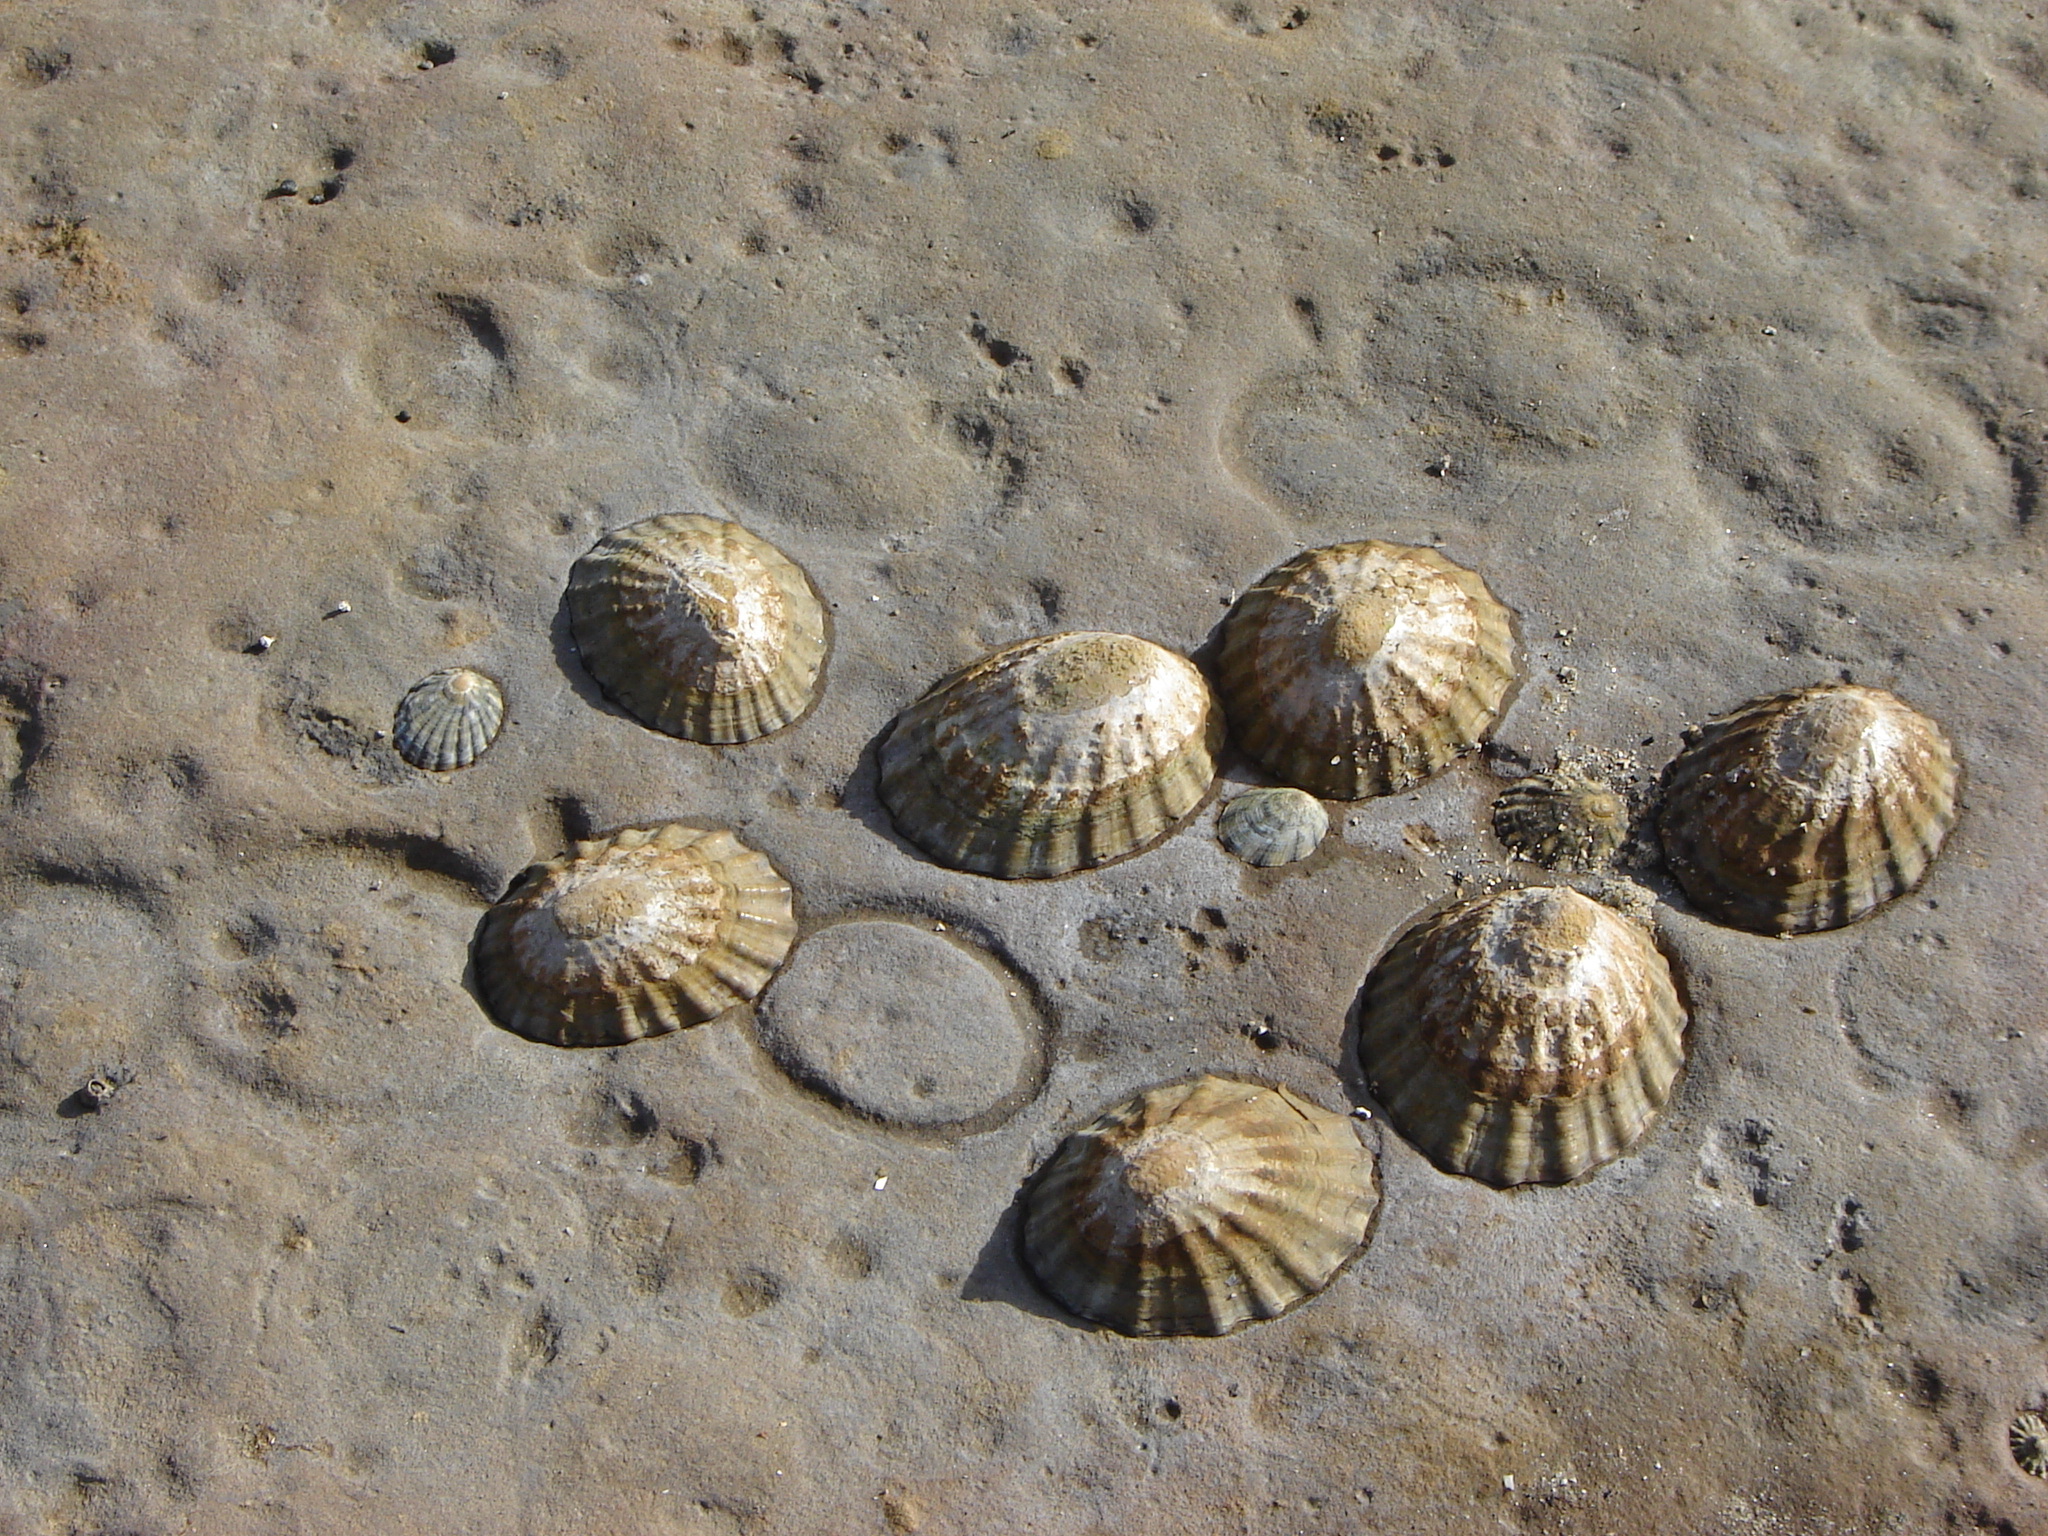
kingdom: Animalia
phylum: Mollusca
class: Gastropoda
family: Nacellidae
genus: Cellana
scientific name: Cellana strigilis
